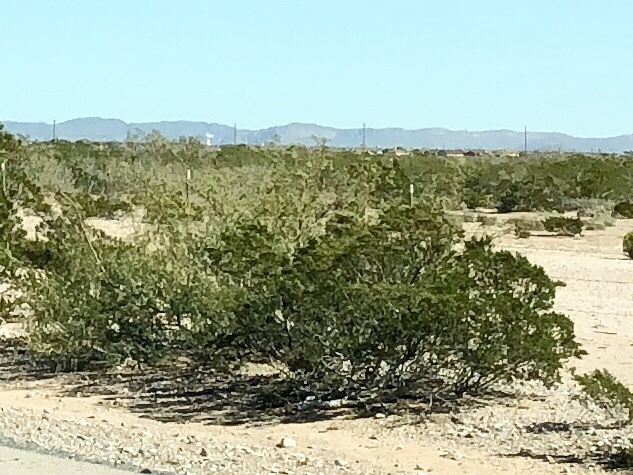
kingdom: Plantae
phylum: Tracheophyta
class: Magnoliopsida
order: Zygophyllales
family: Zygophyllaceae
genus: Larrea
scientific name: Larrea tridentata
